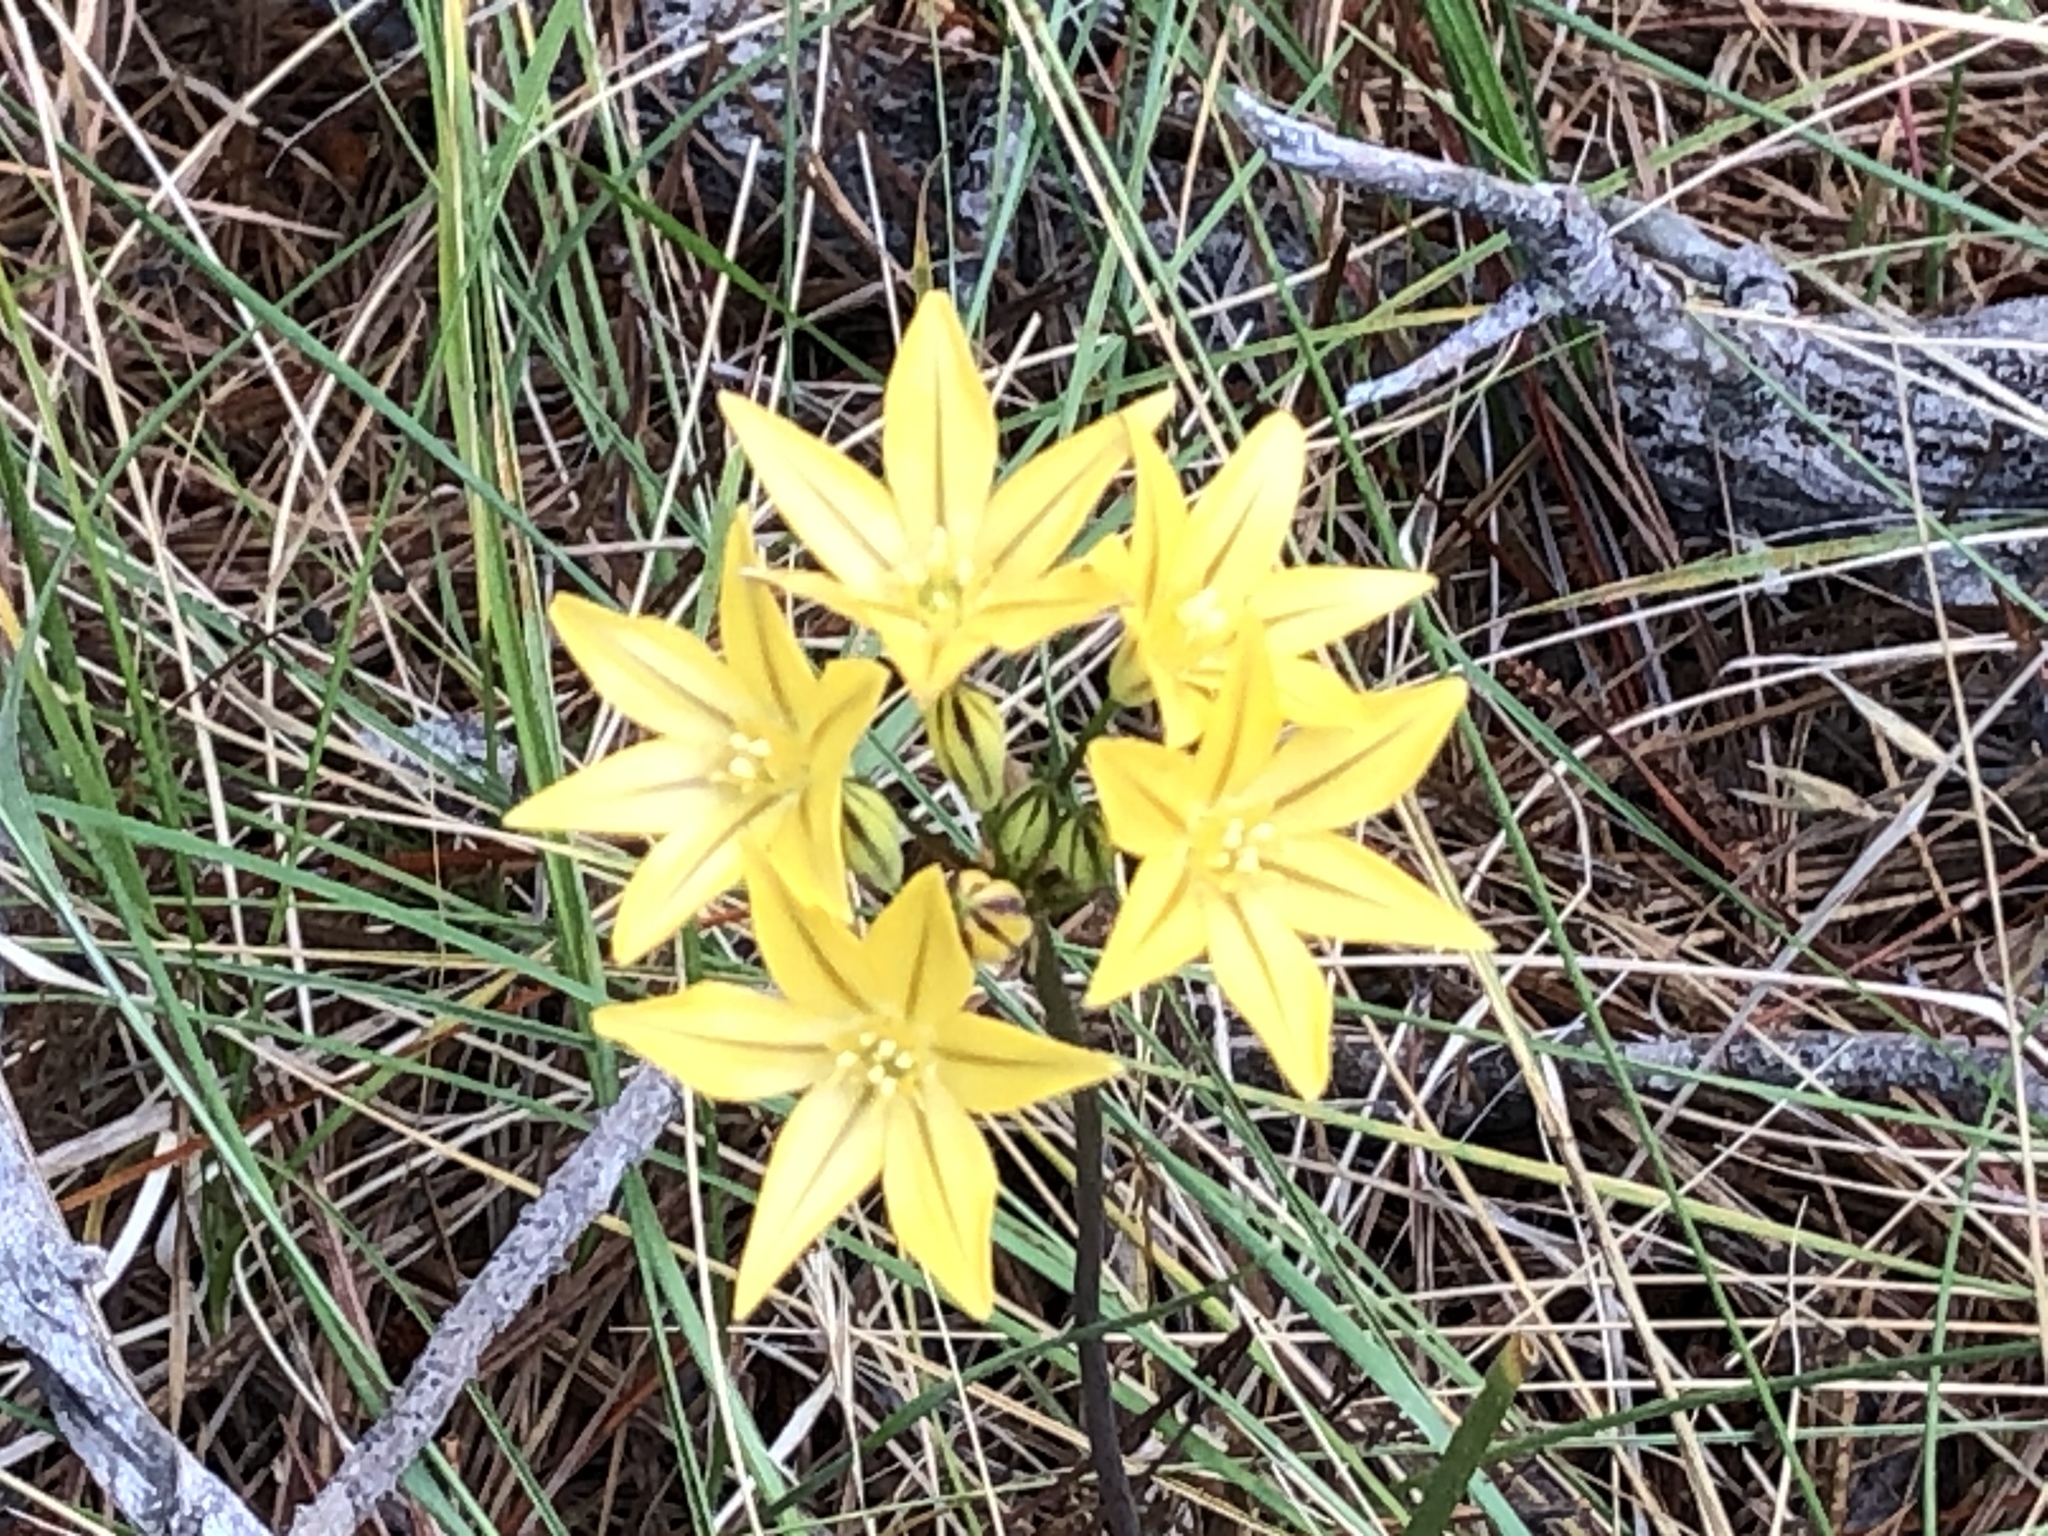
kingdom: Plantae
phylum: Tracheophyta
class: Liliopsida
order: Asparagales
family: Asparagaceae
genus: Triteleia
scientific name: Triteleia ixioides
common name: Yellow-brodiaea
